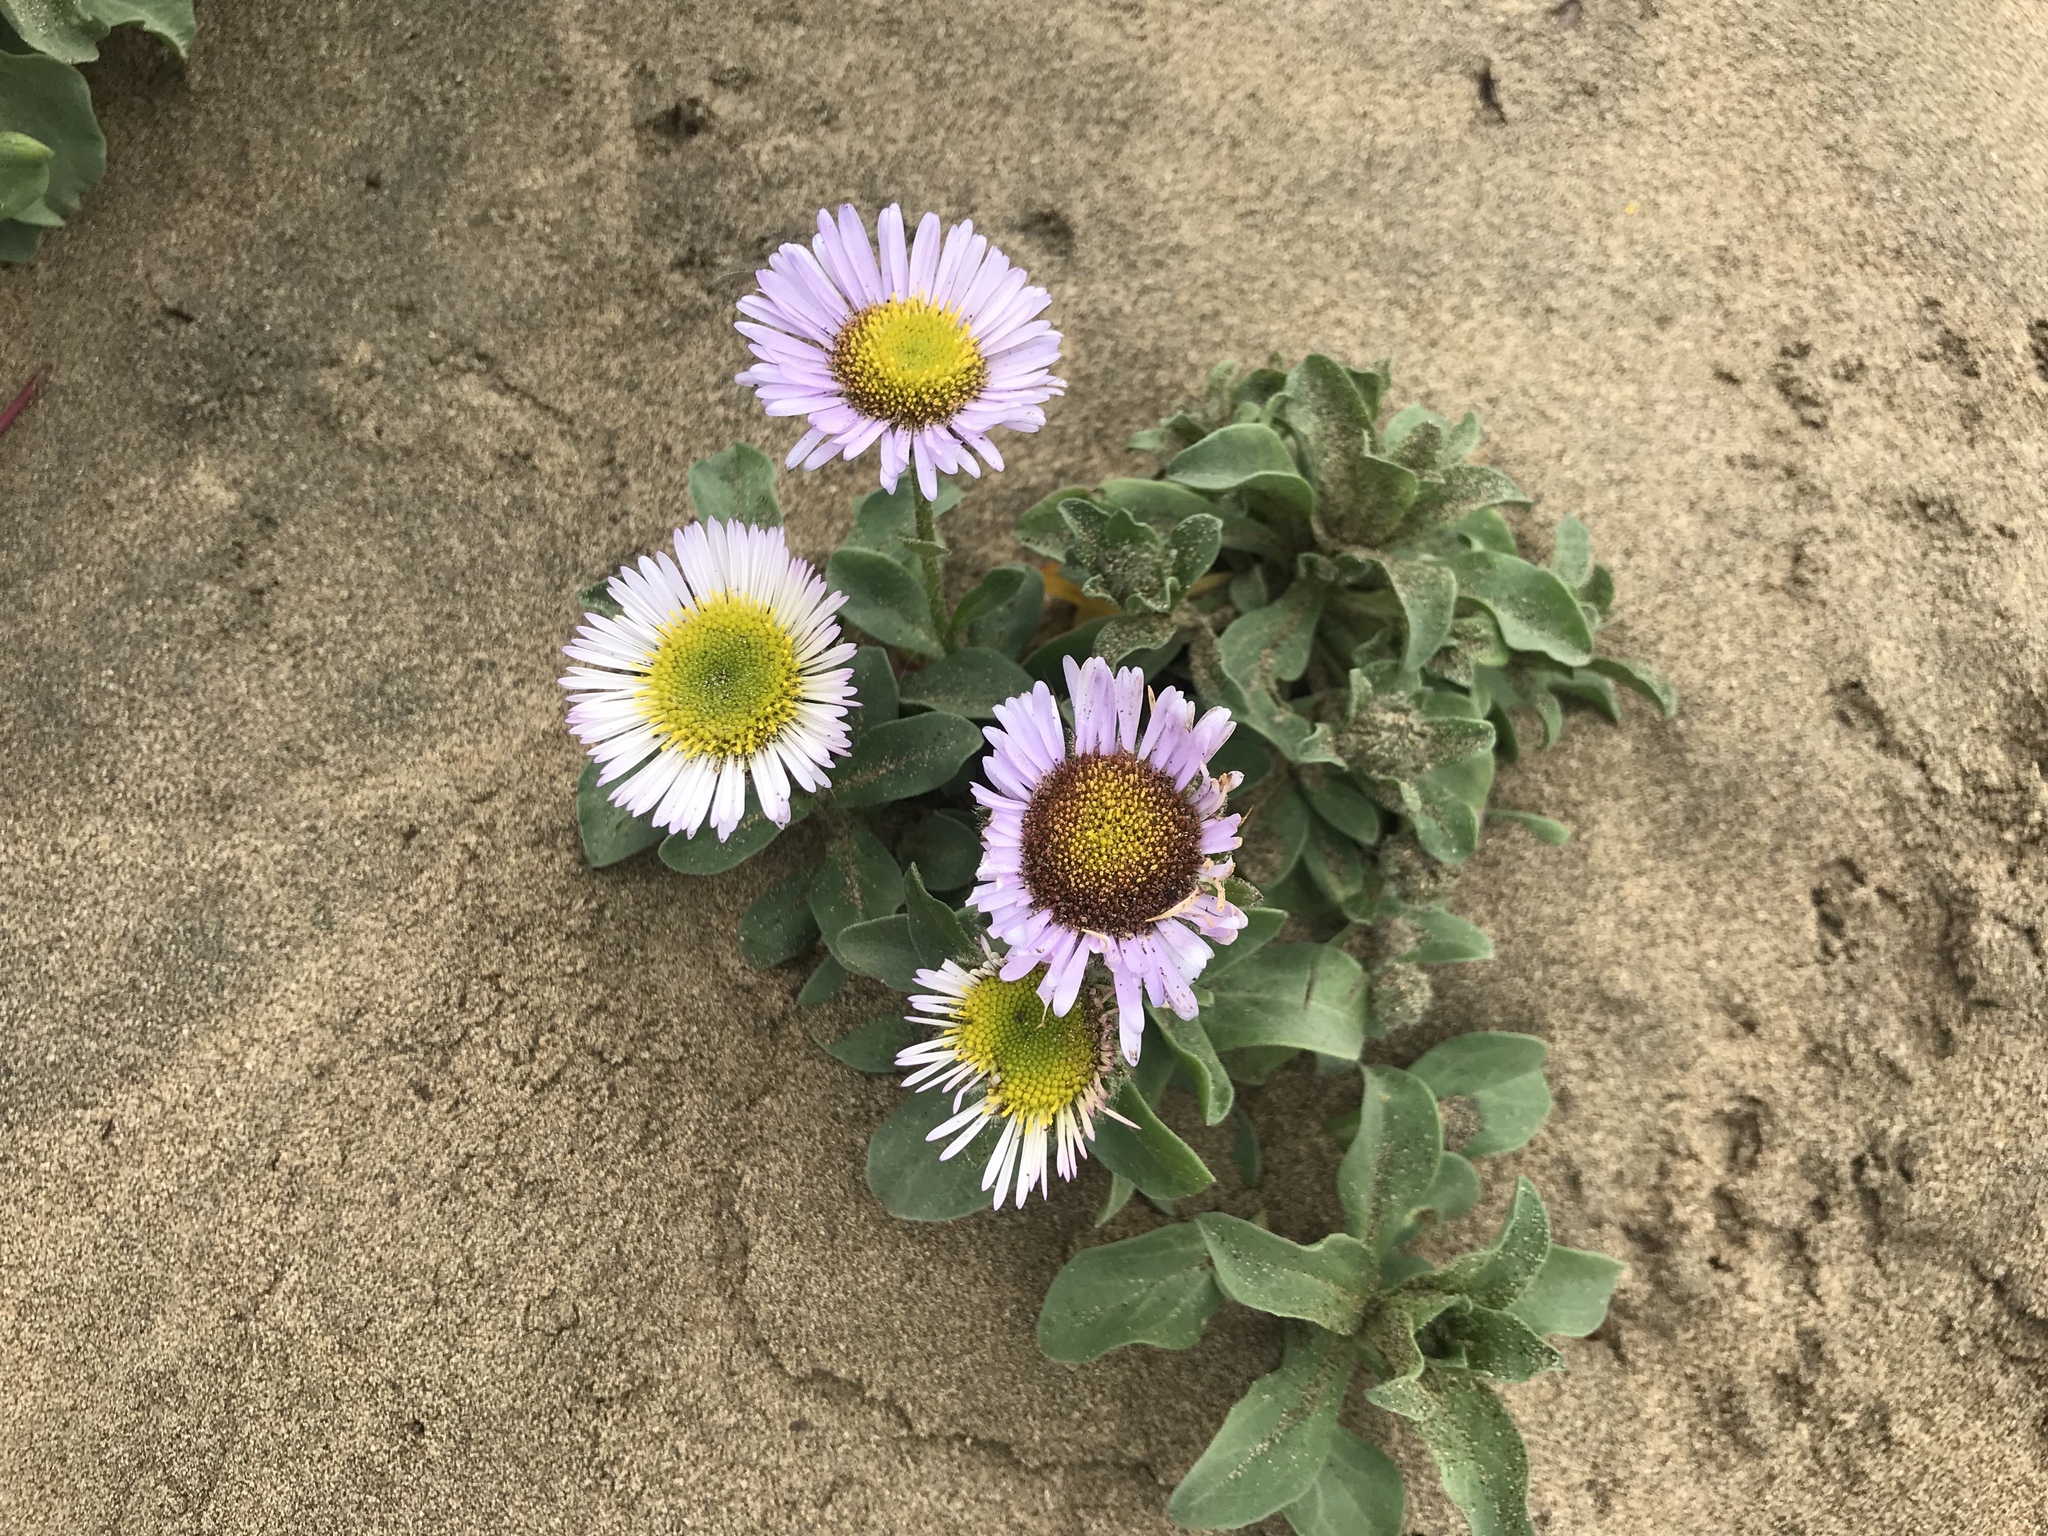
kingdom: Plantae
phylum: Tracheophyta
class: Magnoliopsida
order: Asterales
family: Asteraceae
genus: Erigeron
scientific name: Erigeron glaucus
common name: Seaside daisy
